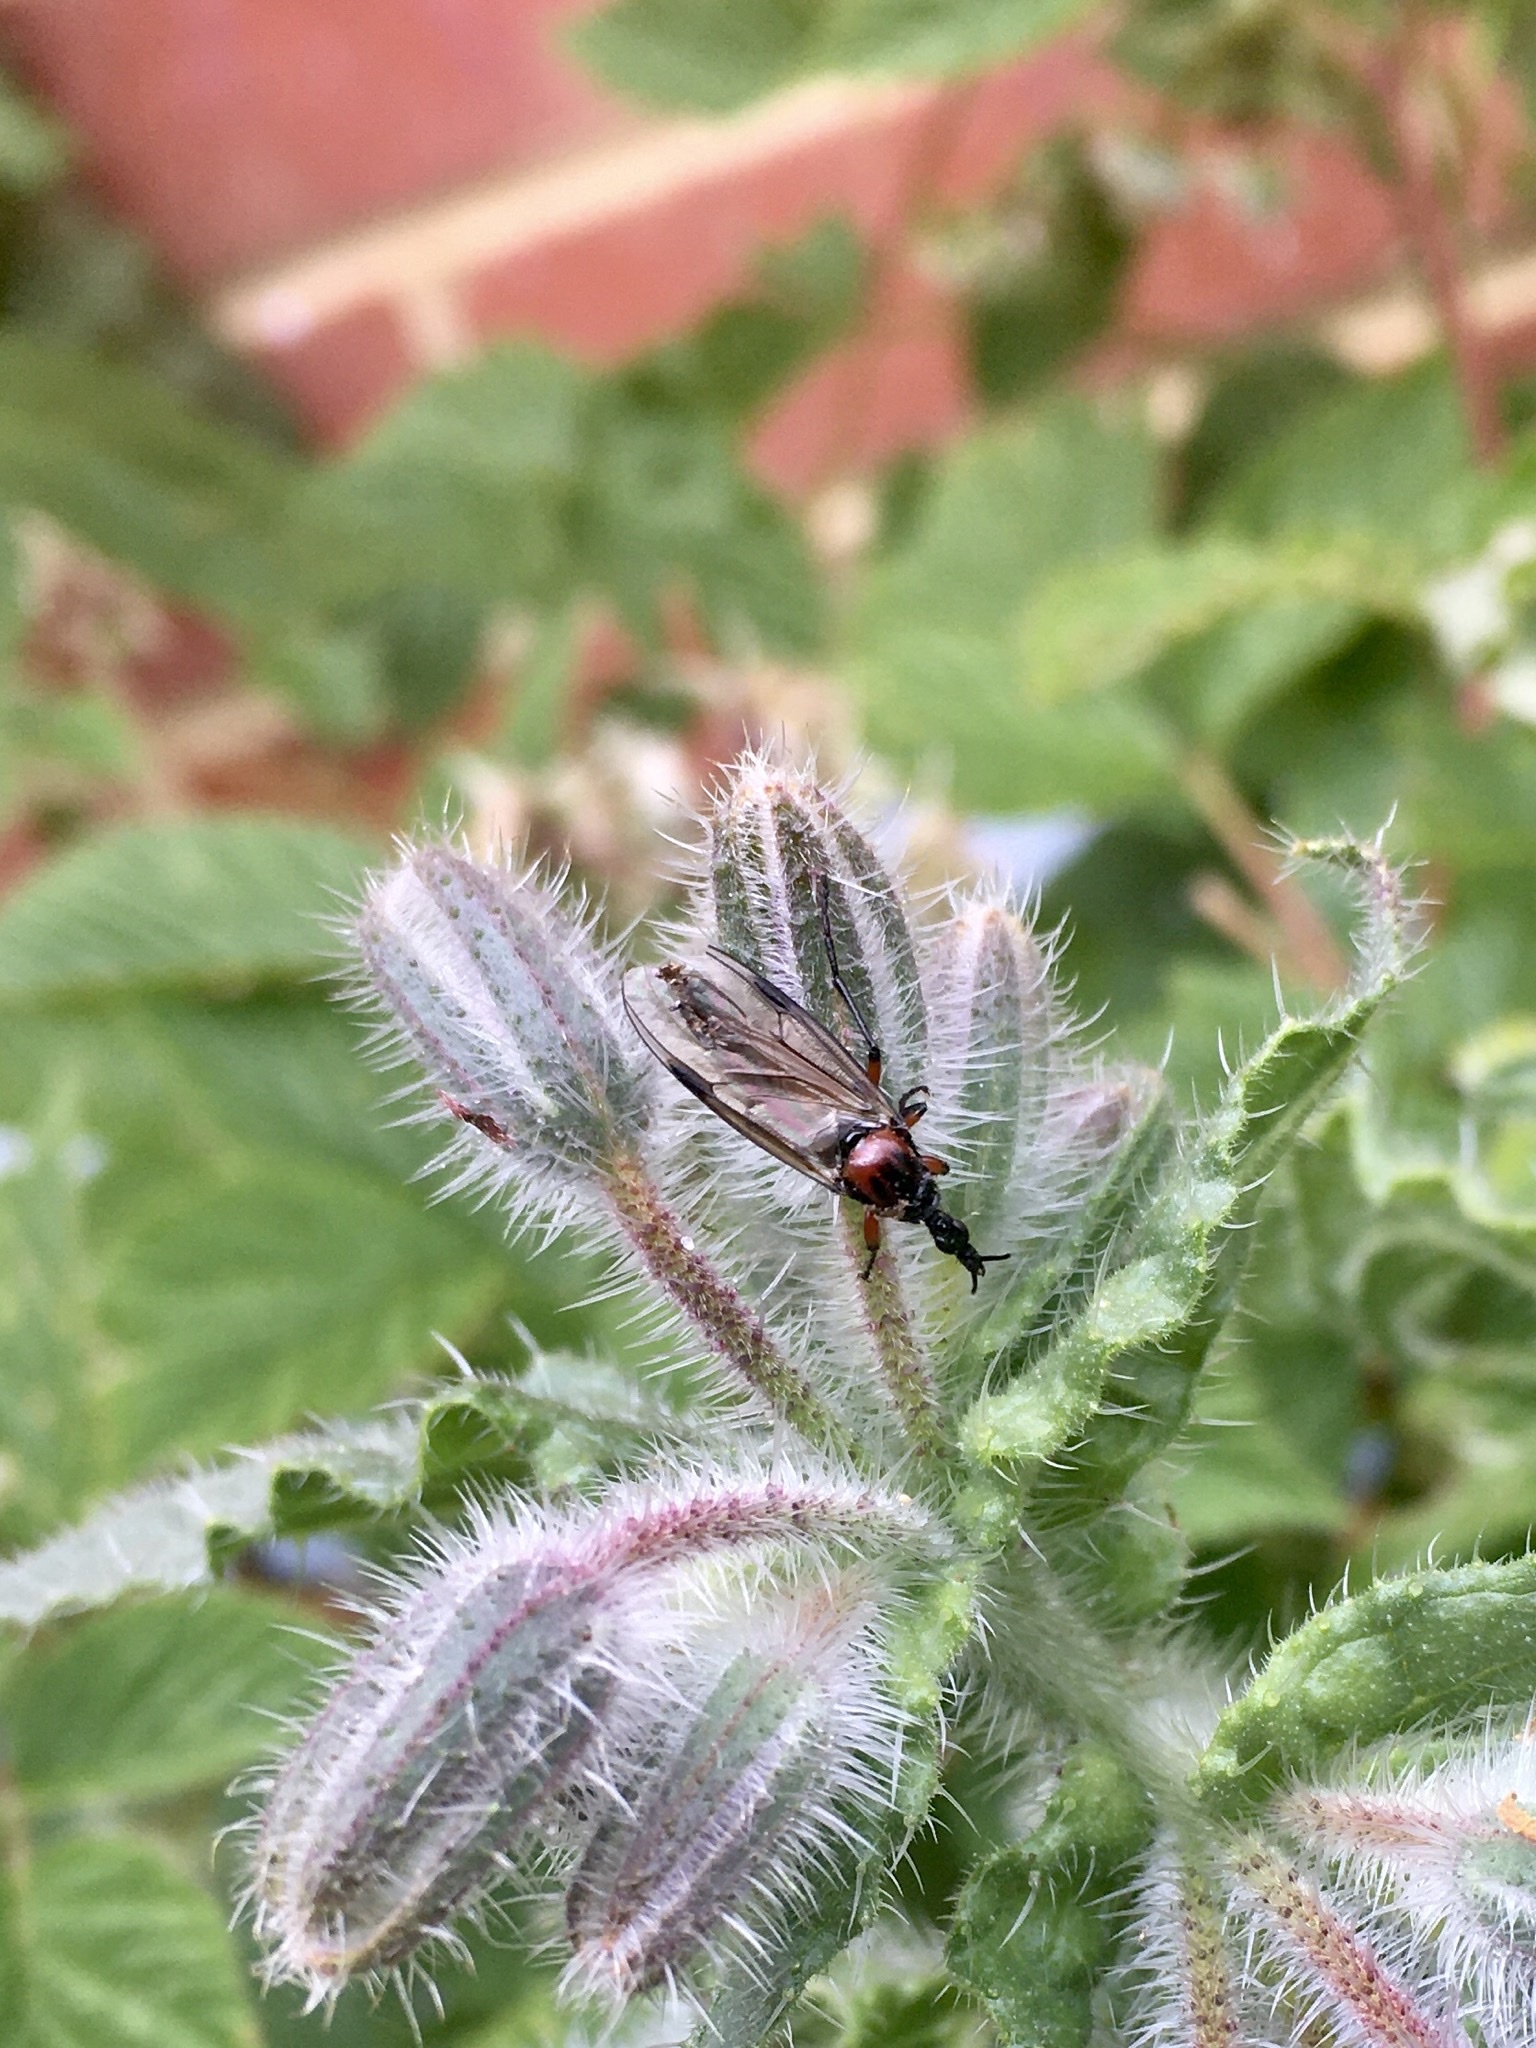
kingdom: Animalia
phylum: Arthropoda
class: Insecta
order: Diptera
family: Bibionidae
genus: Dilophus
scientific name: Dilophus nigrostigma
